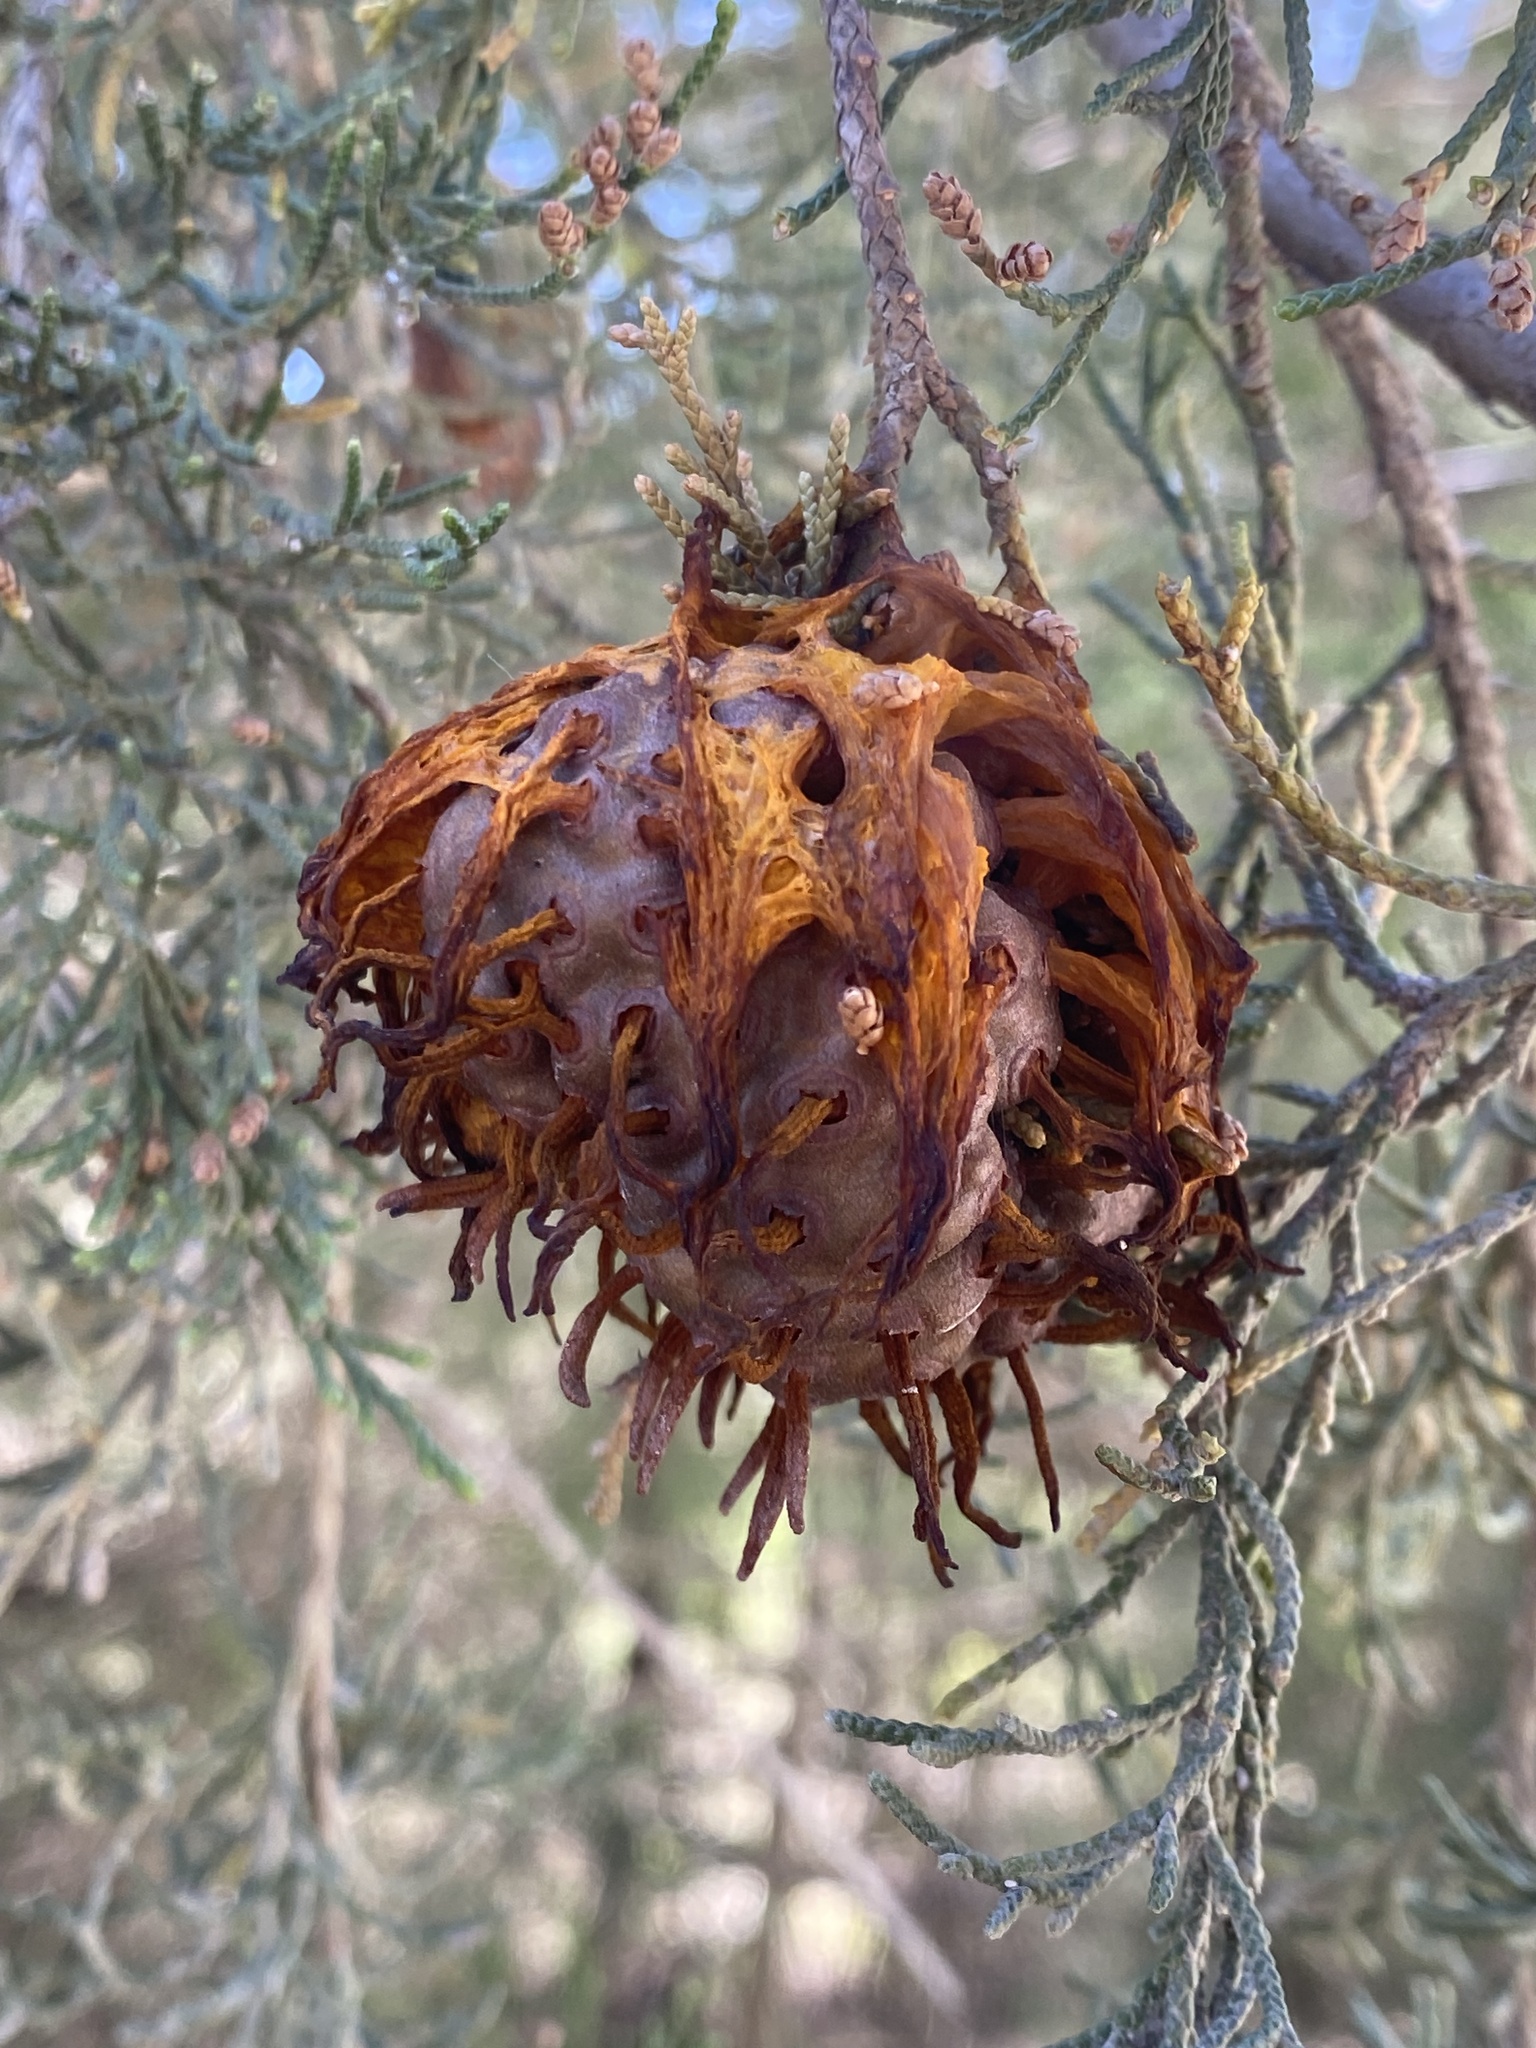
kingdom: Fungi
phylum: Basidiomycota
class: Pucciniomycetes
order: Pucciniales
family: Gymnosporangiaceae
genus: Gymnosporangium
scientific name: Gymnosporangium juniperi-virginianae
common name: Juniper-apple rust
